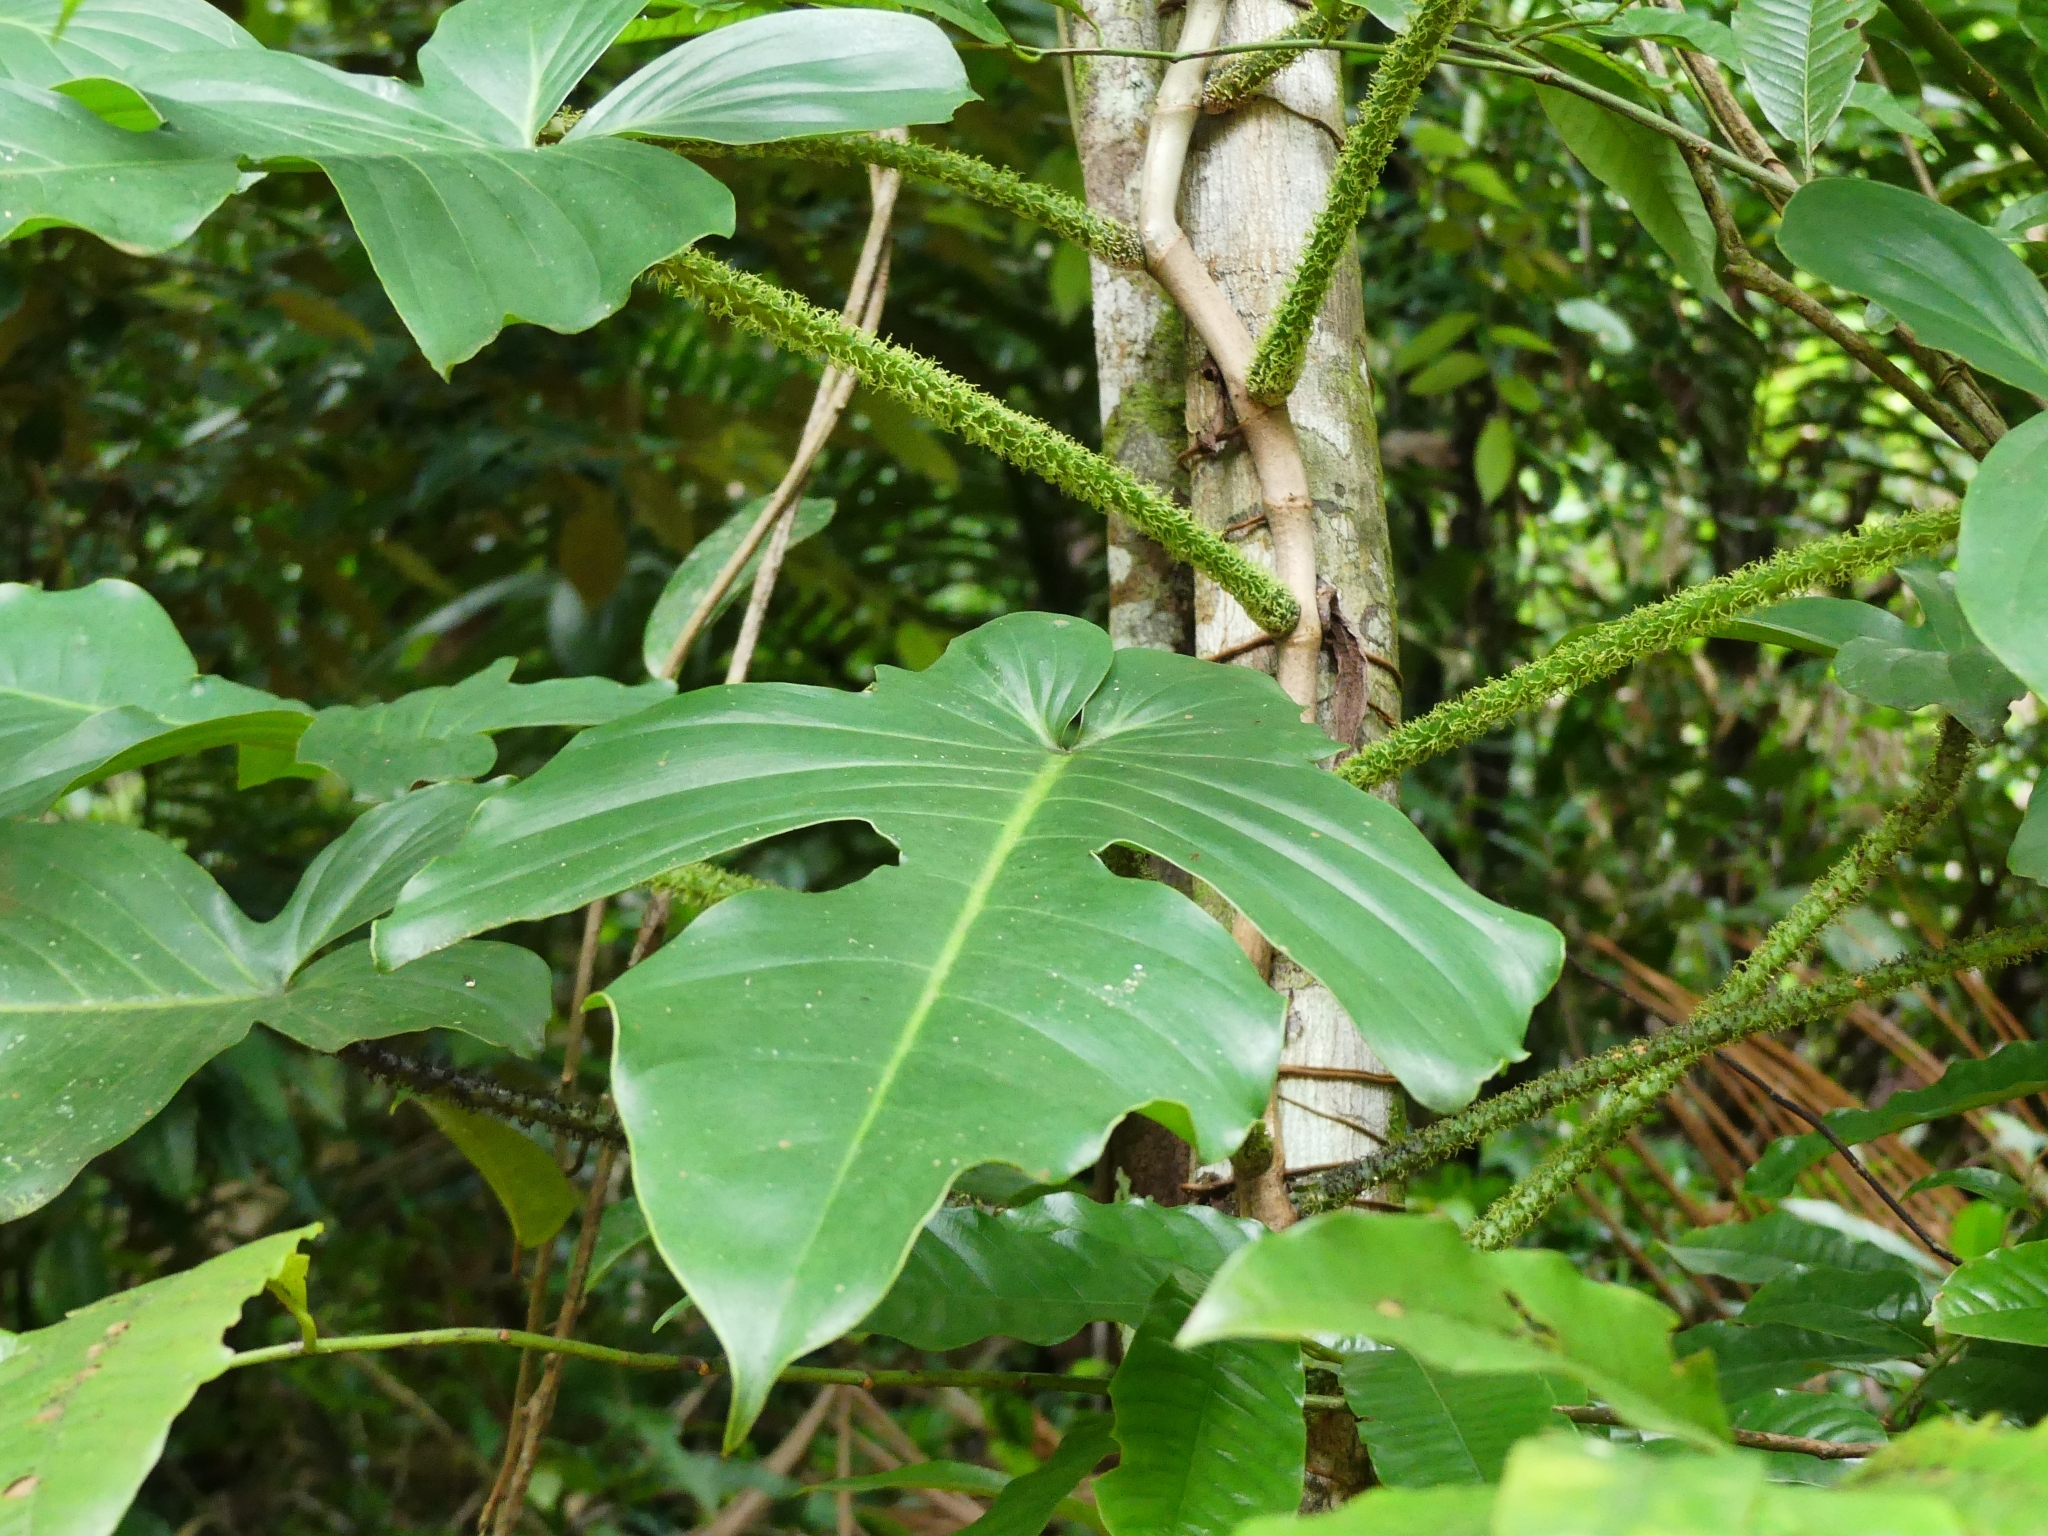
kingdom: Plantae
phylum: Tracheophyta
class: Liliopsida
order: Alismatales
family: Araceae
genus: Philodendron
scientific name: Philodendron squamiferum
